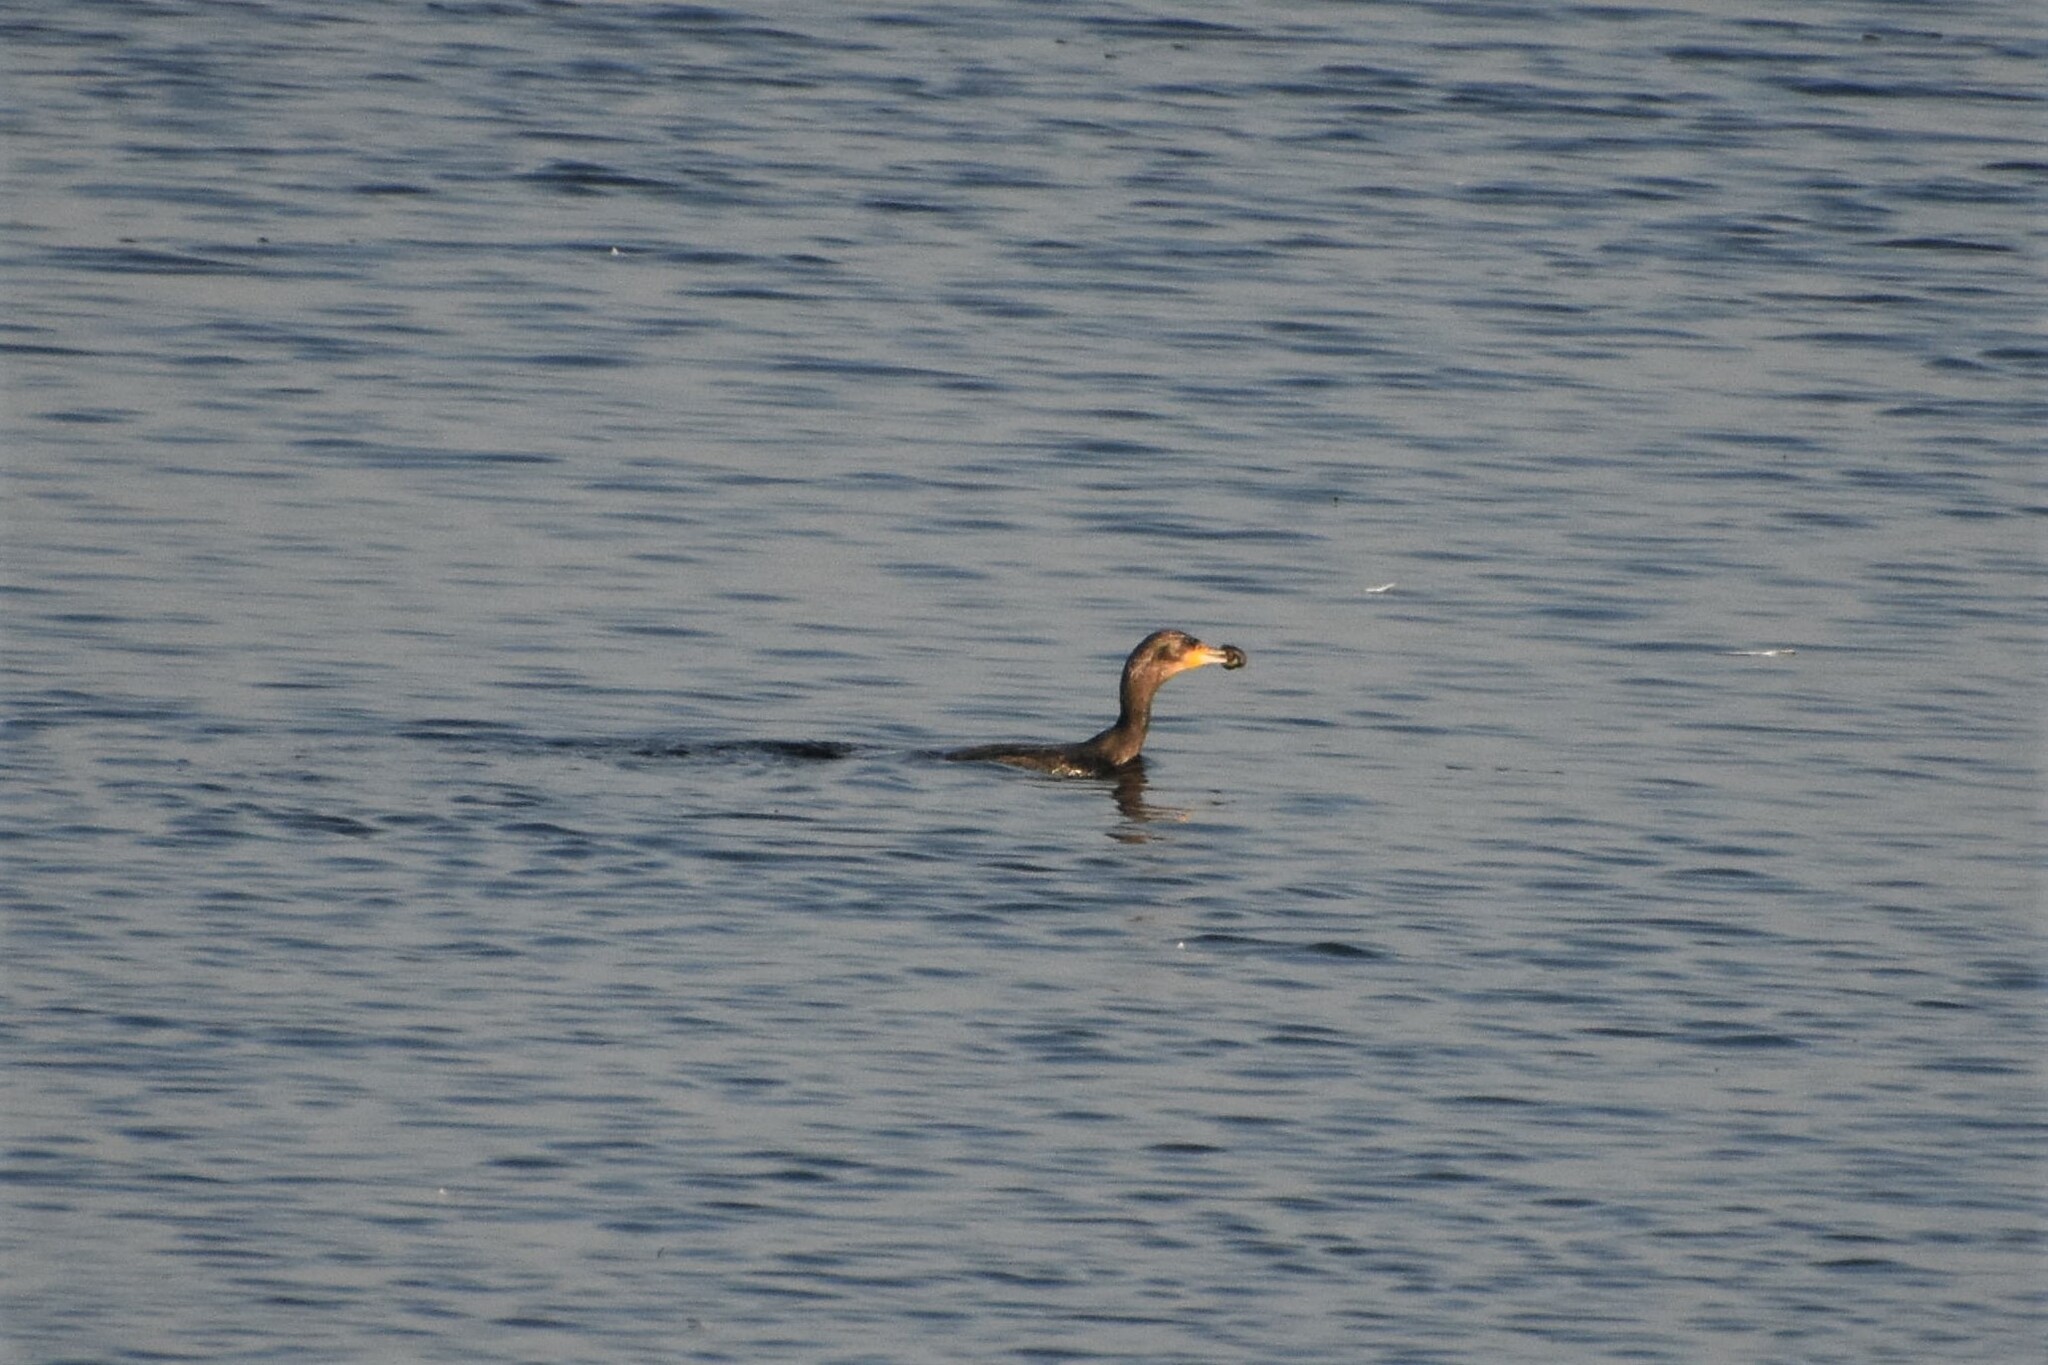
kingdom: Animalia
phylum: Chordata
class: Aves
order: Suliformes
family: Phalacrocoracidae
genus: Phalacrocorax
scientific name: Phalacrocorax carbo
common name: Great cormorant
